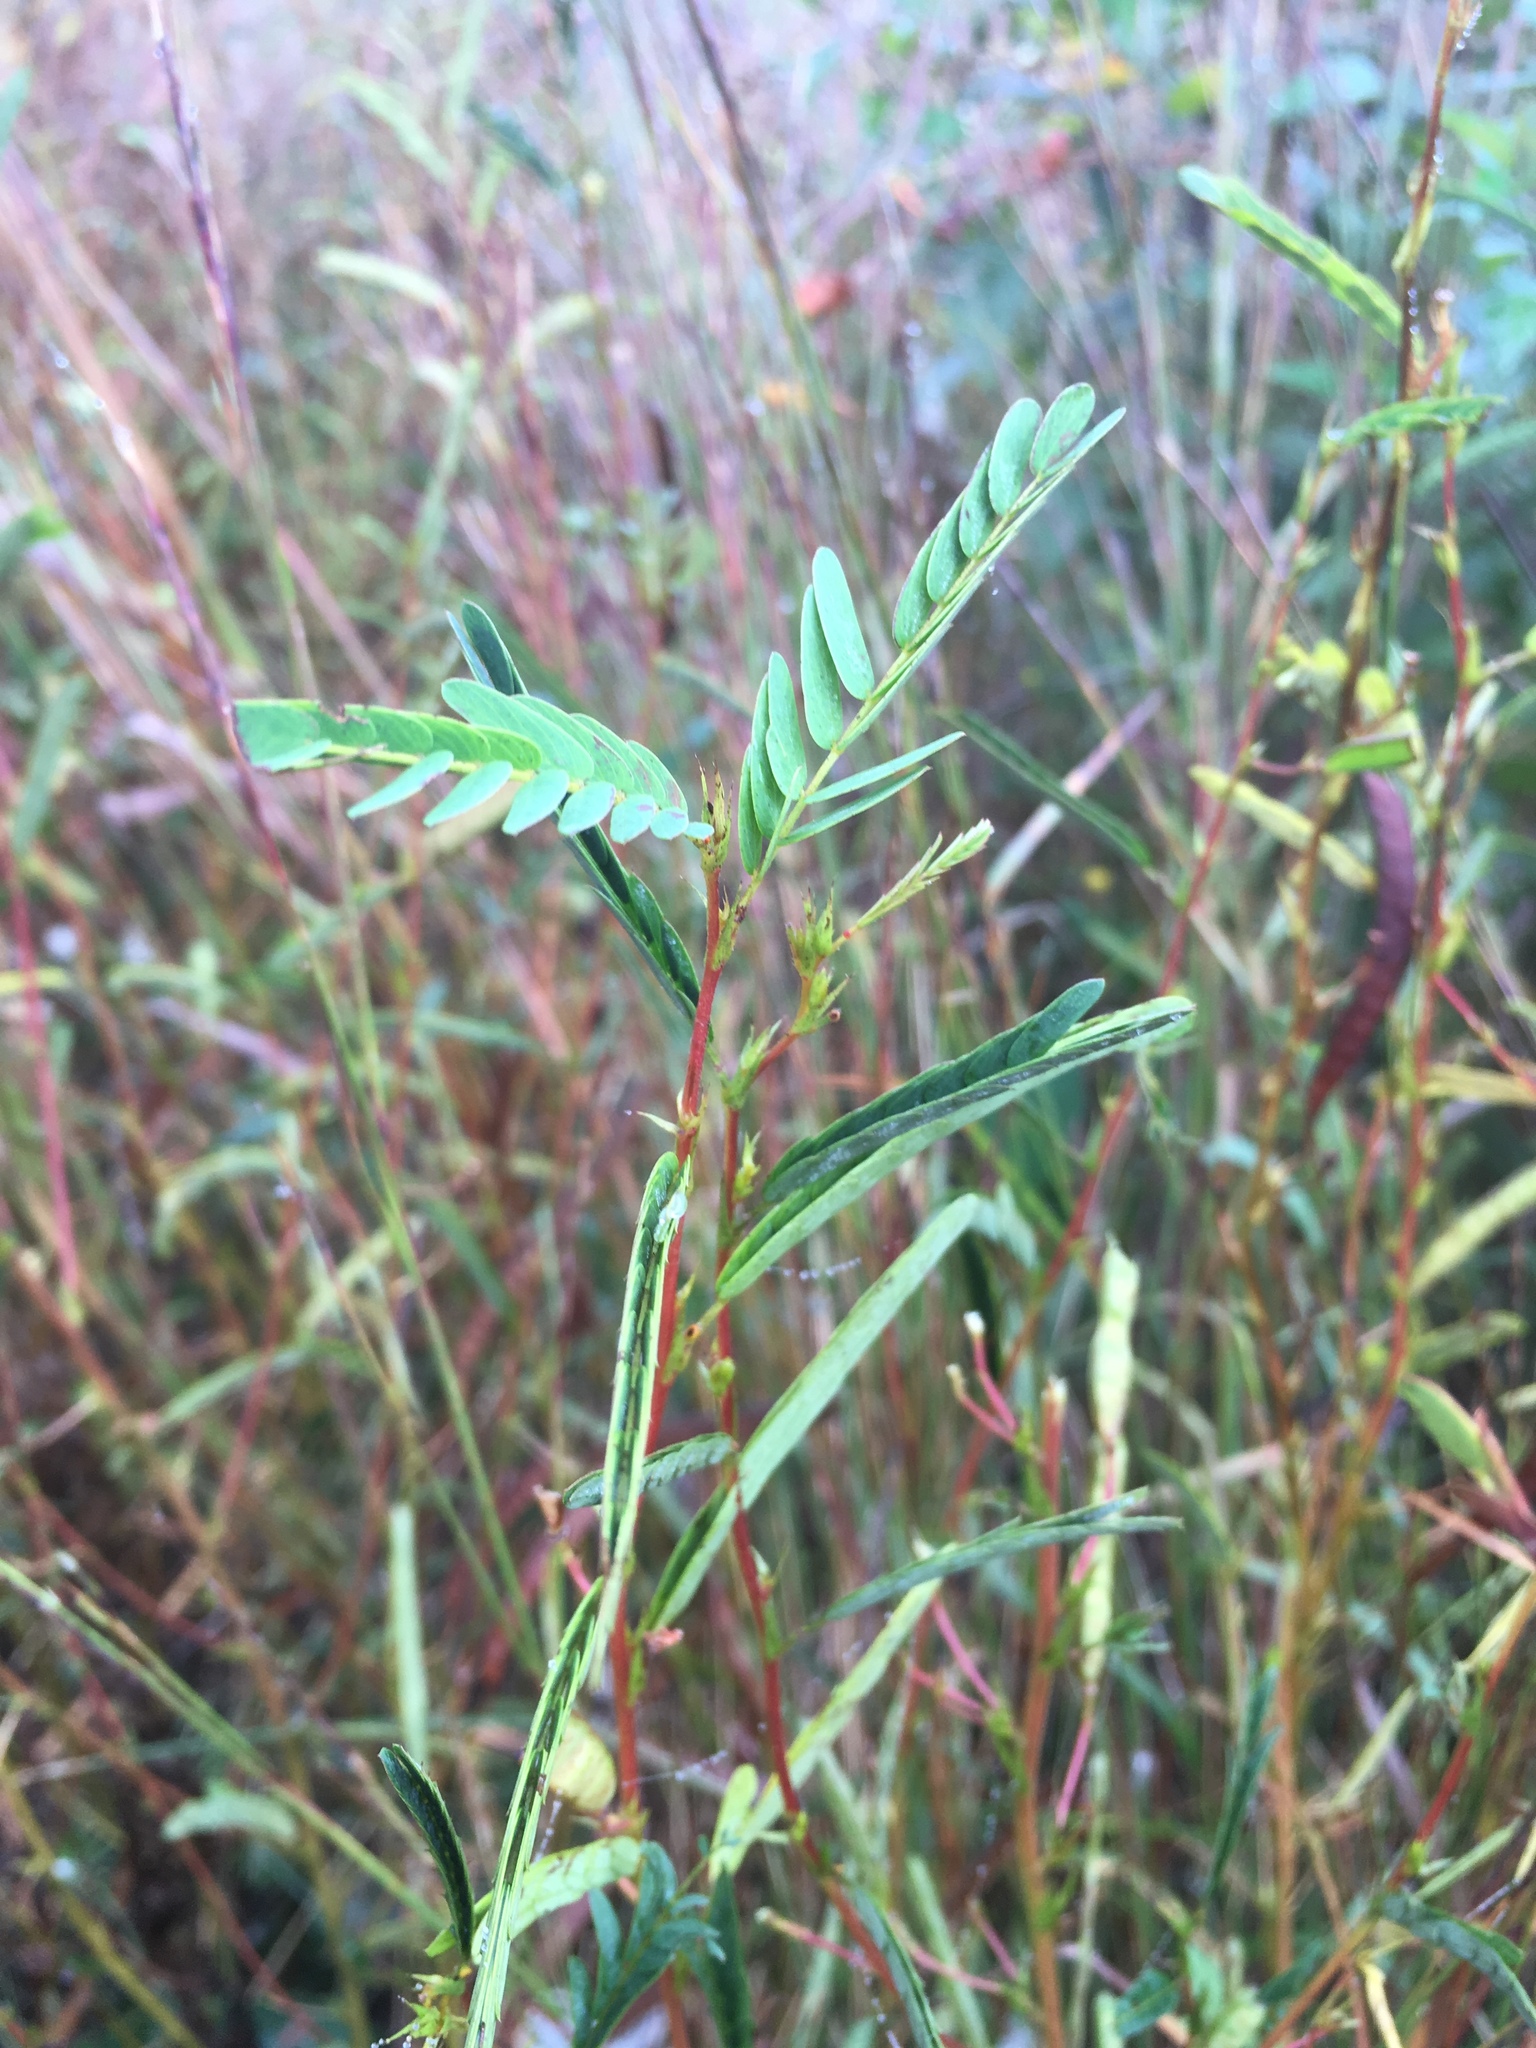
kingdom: Plantae
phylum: Tracheophyta
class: Magnoliopsida
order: Fabales
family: Fabaceae
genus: Chamaecrista
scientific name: Chamaecrista fasciculata
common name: Golden cassia
